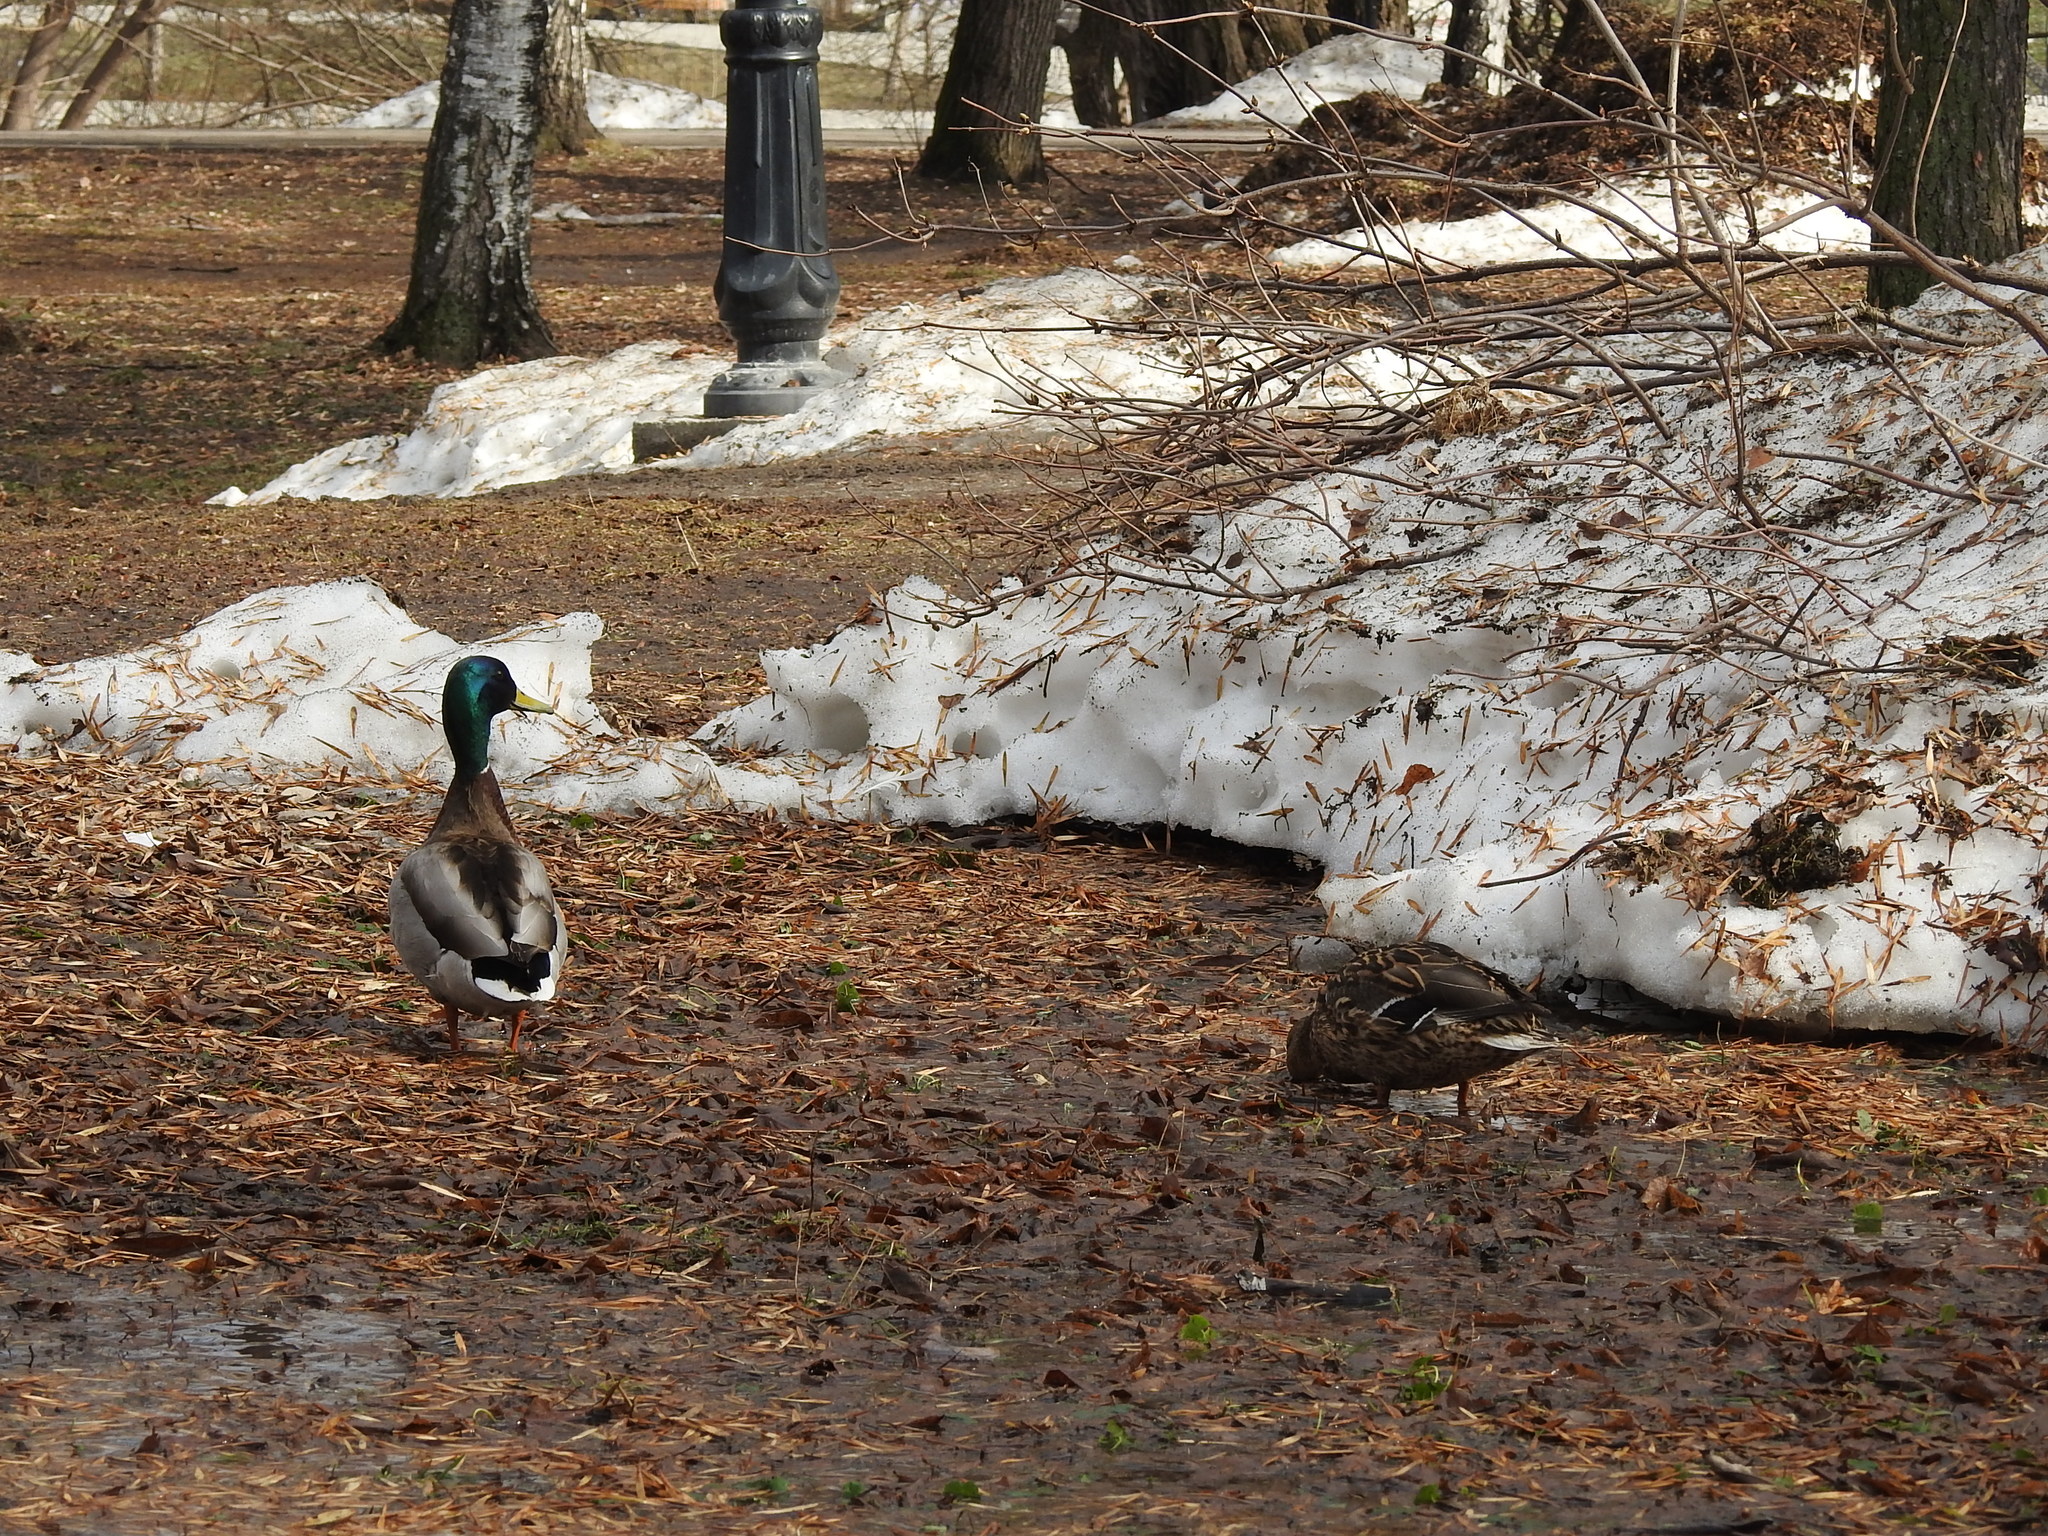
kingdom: Animalia
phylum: Chordata
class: Aves
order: Anseriformes
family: Anatidae
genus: Anas
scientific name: Anas platyrhynchos
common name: Mallard
